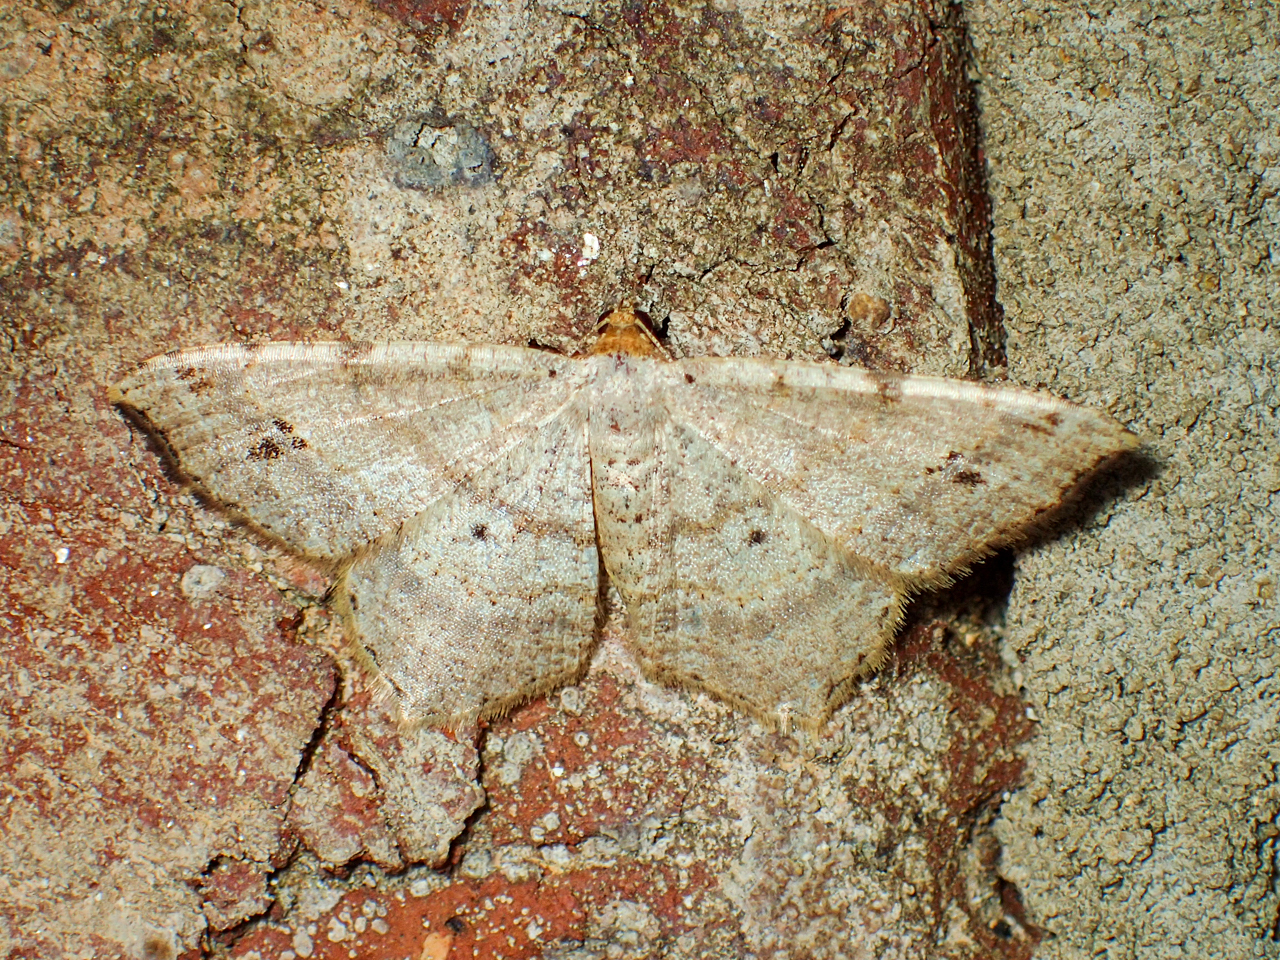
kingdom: Animalia
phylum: Arthropoda
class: Insecta
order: Lepidoptera
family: Geometridae
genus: Macaria
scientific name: Macaria bisignata
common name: Red-headed inchworm
